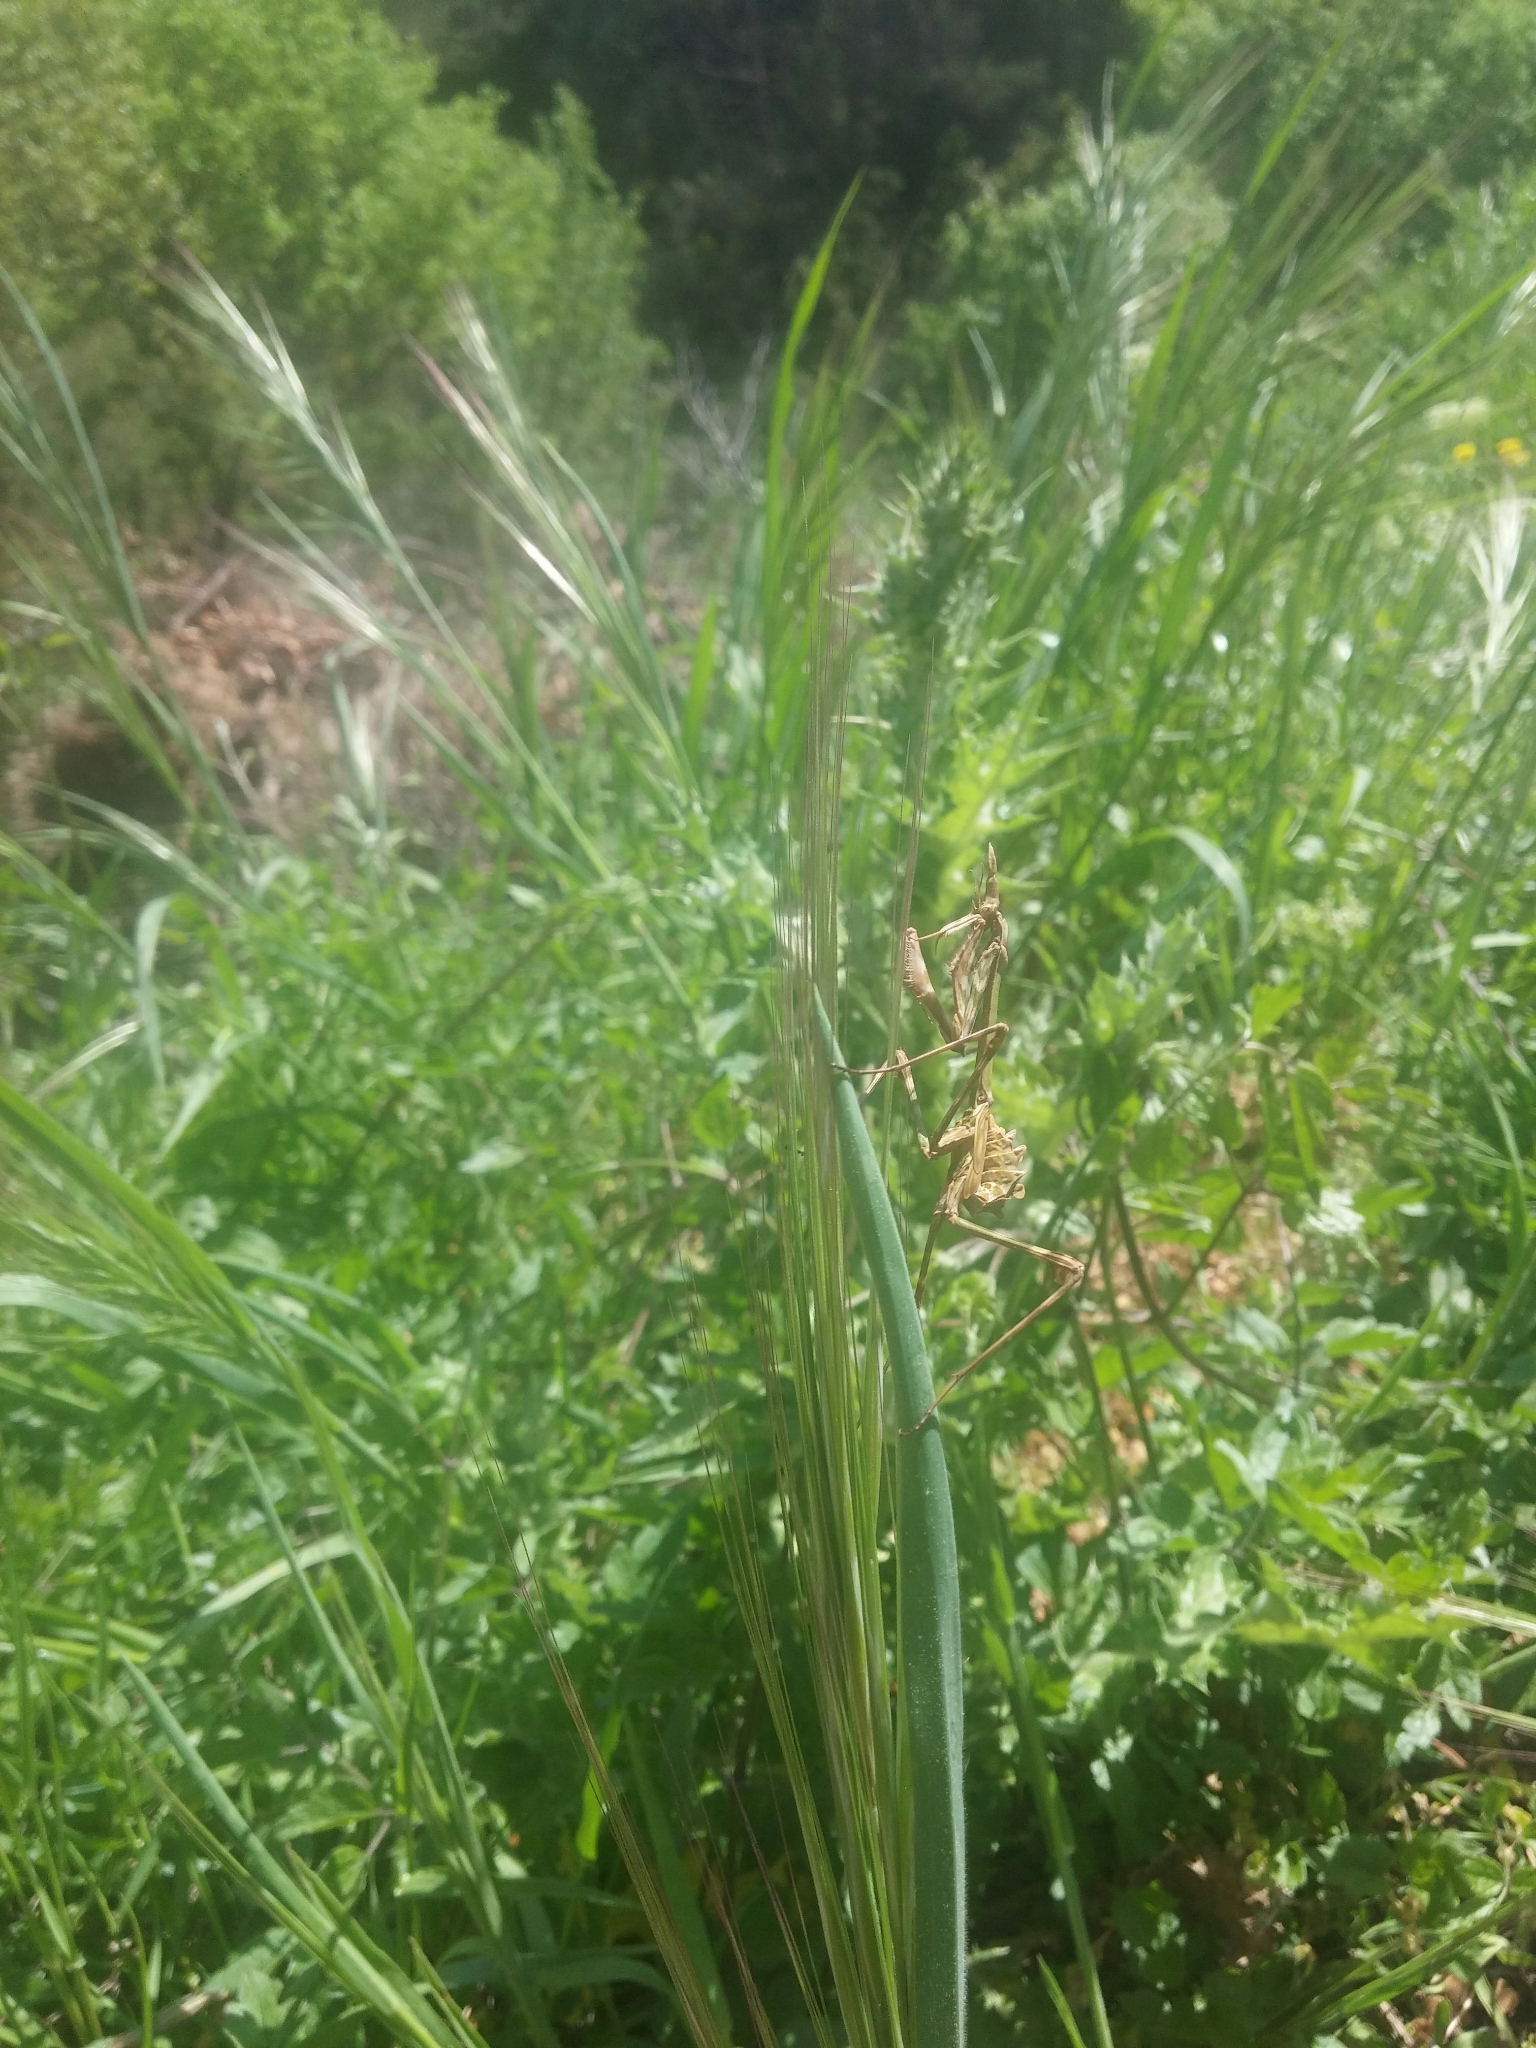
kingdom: Animalia
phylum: Arthropoda
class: Insecta
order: Mantodea
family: Empusidae
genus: Empusa
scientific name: Empusa pennata
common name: Conehead mantis
